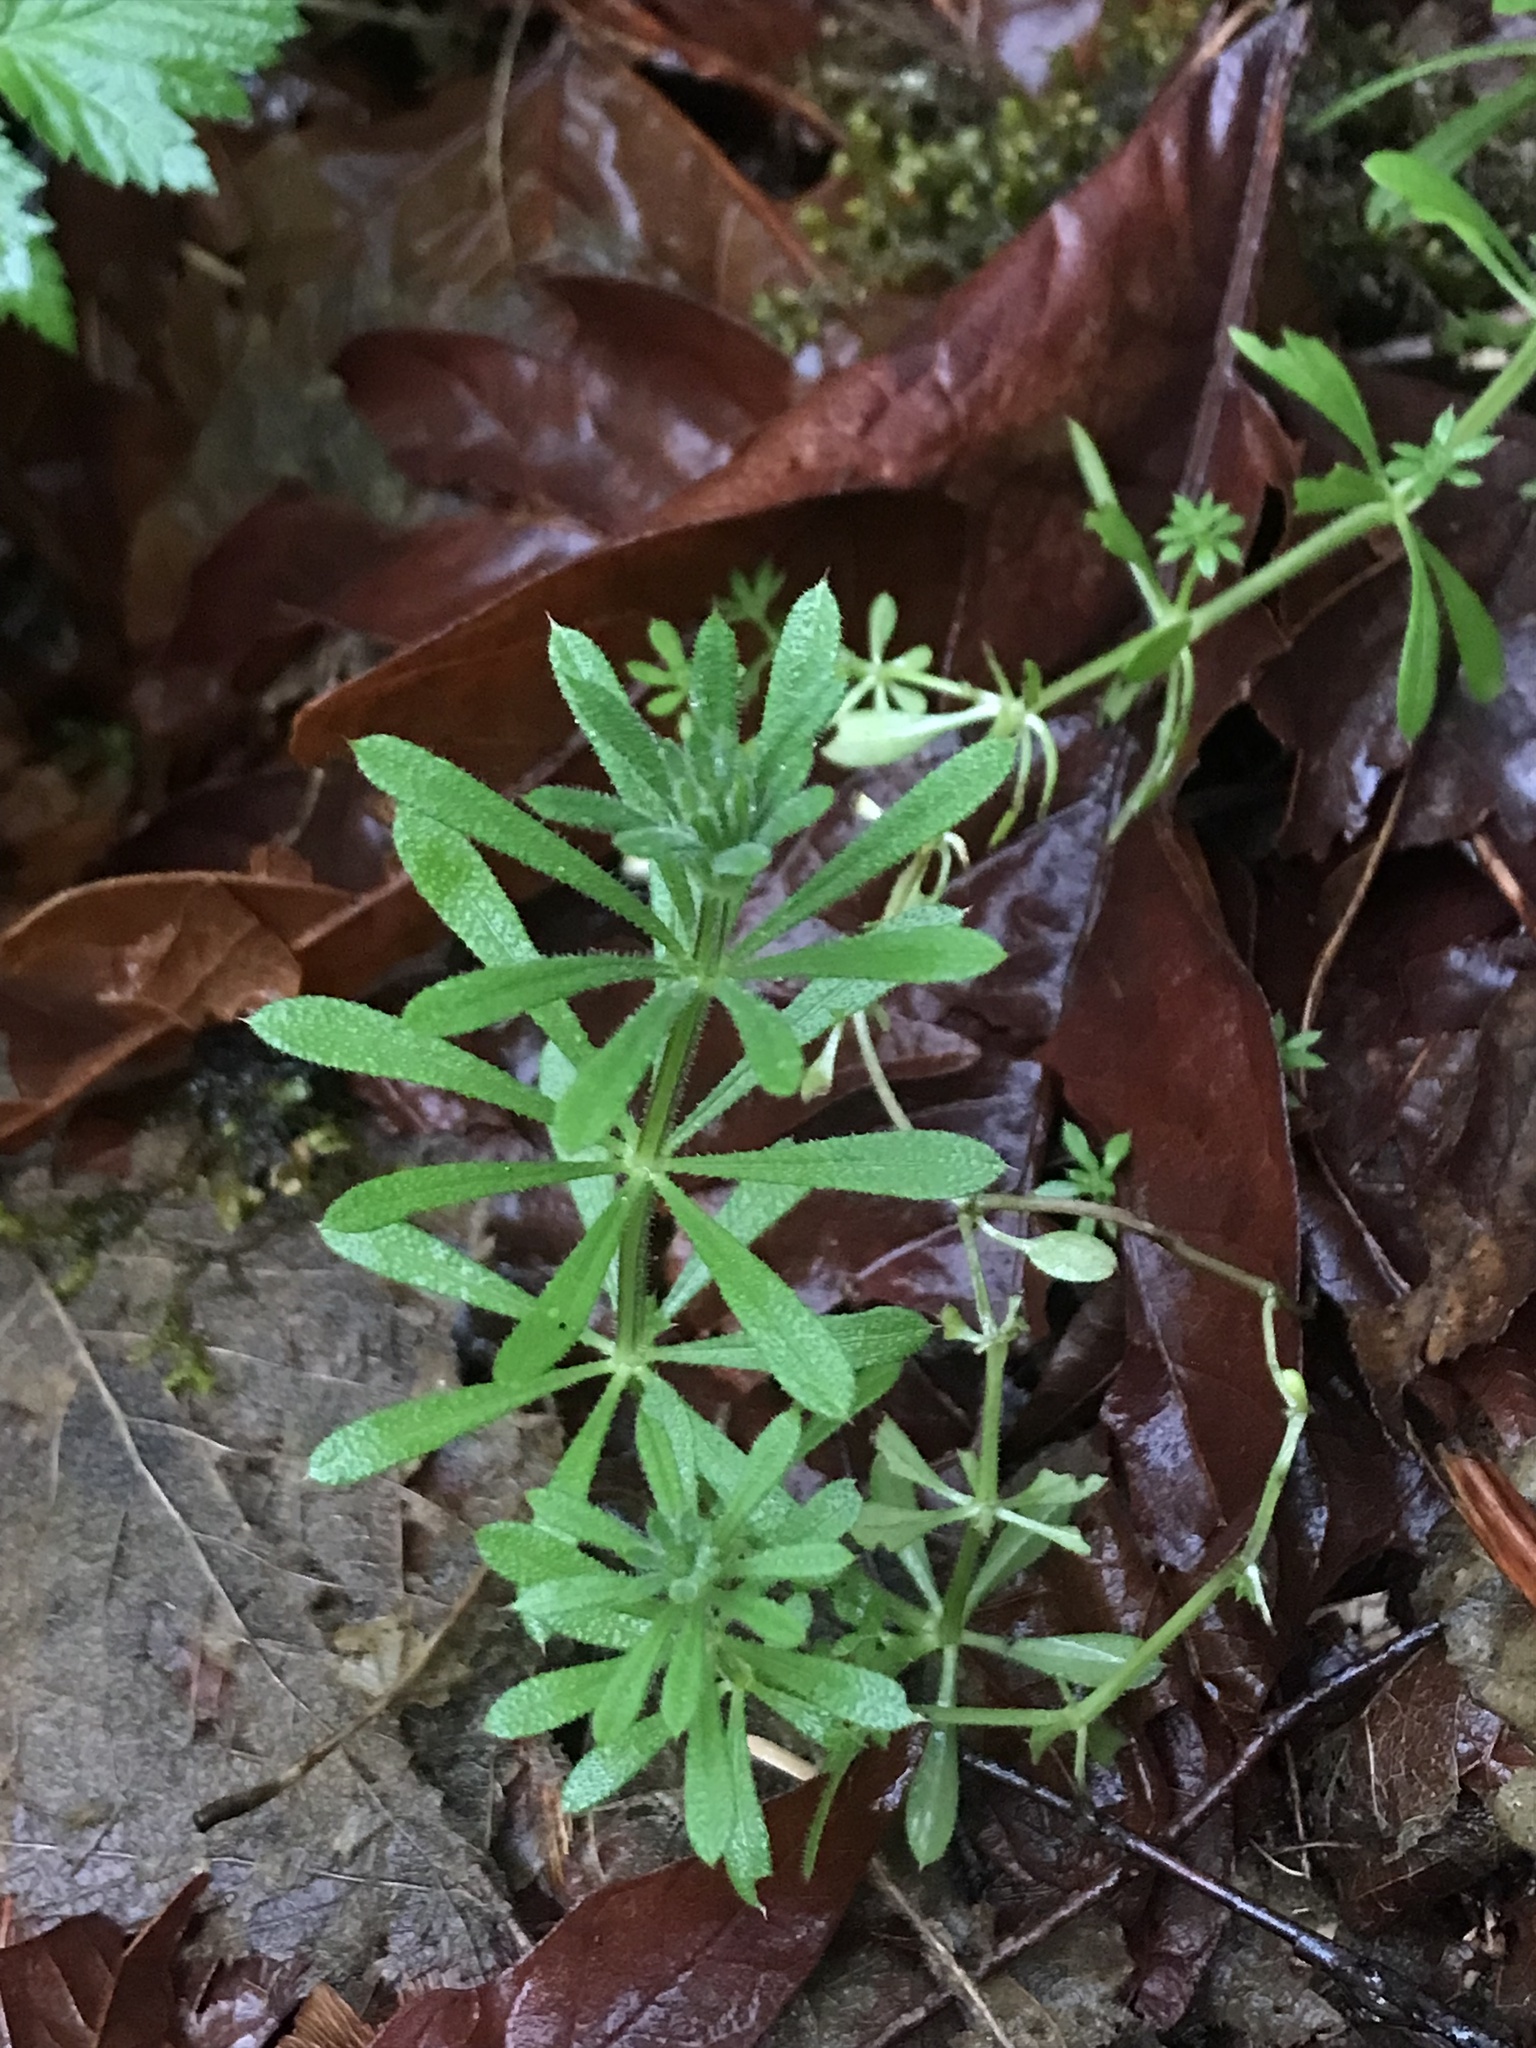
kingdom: Plantae
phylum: Tracheophyta
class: Magnoliopsida
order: Gentianales
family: Rubiaceae
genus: Galium
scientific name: Galium aparine
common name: Cleavers
